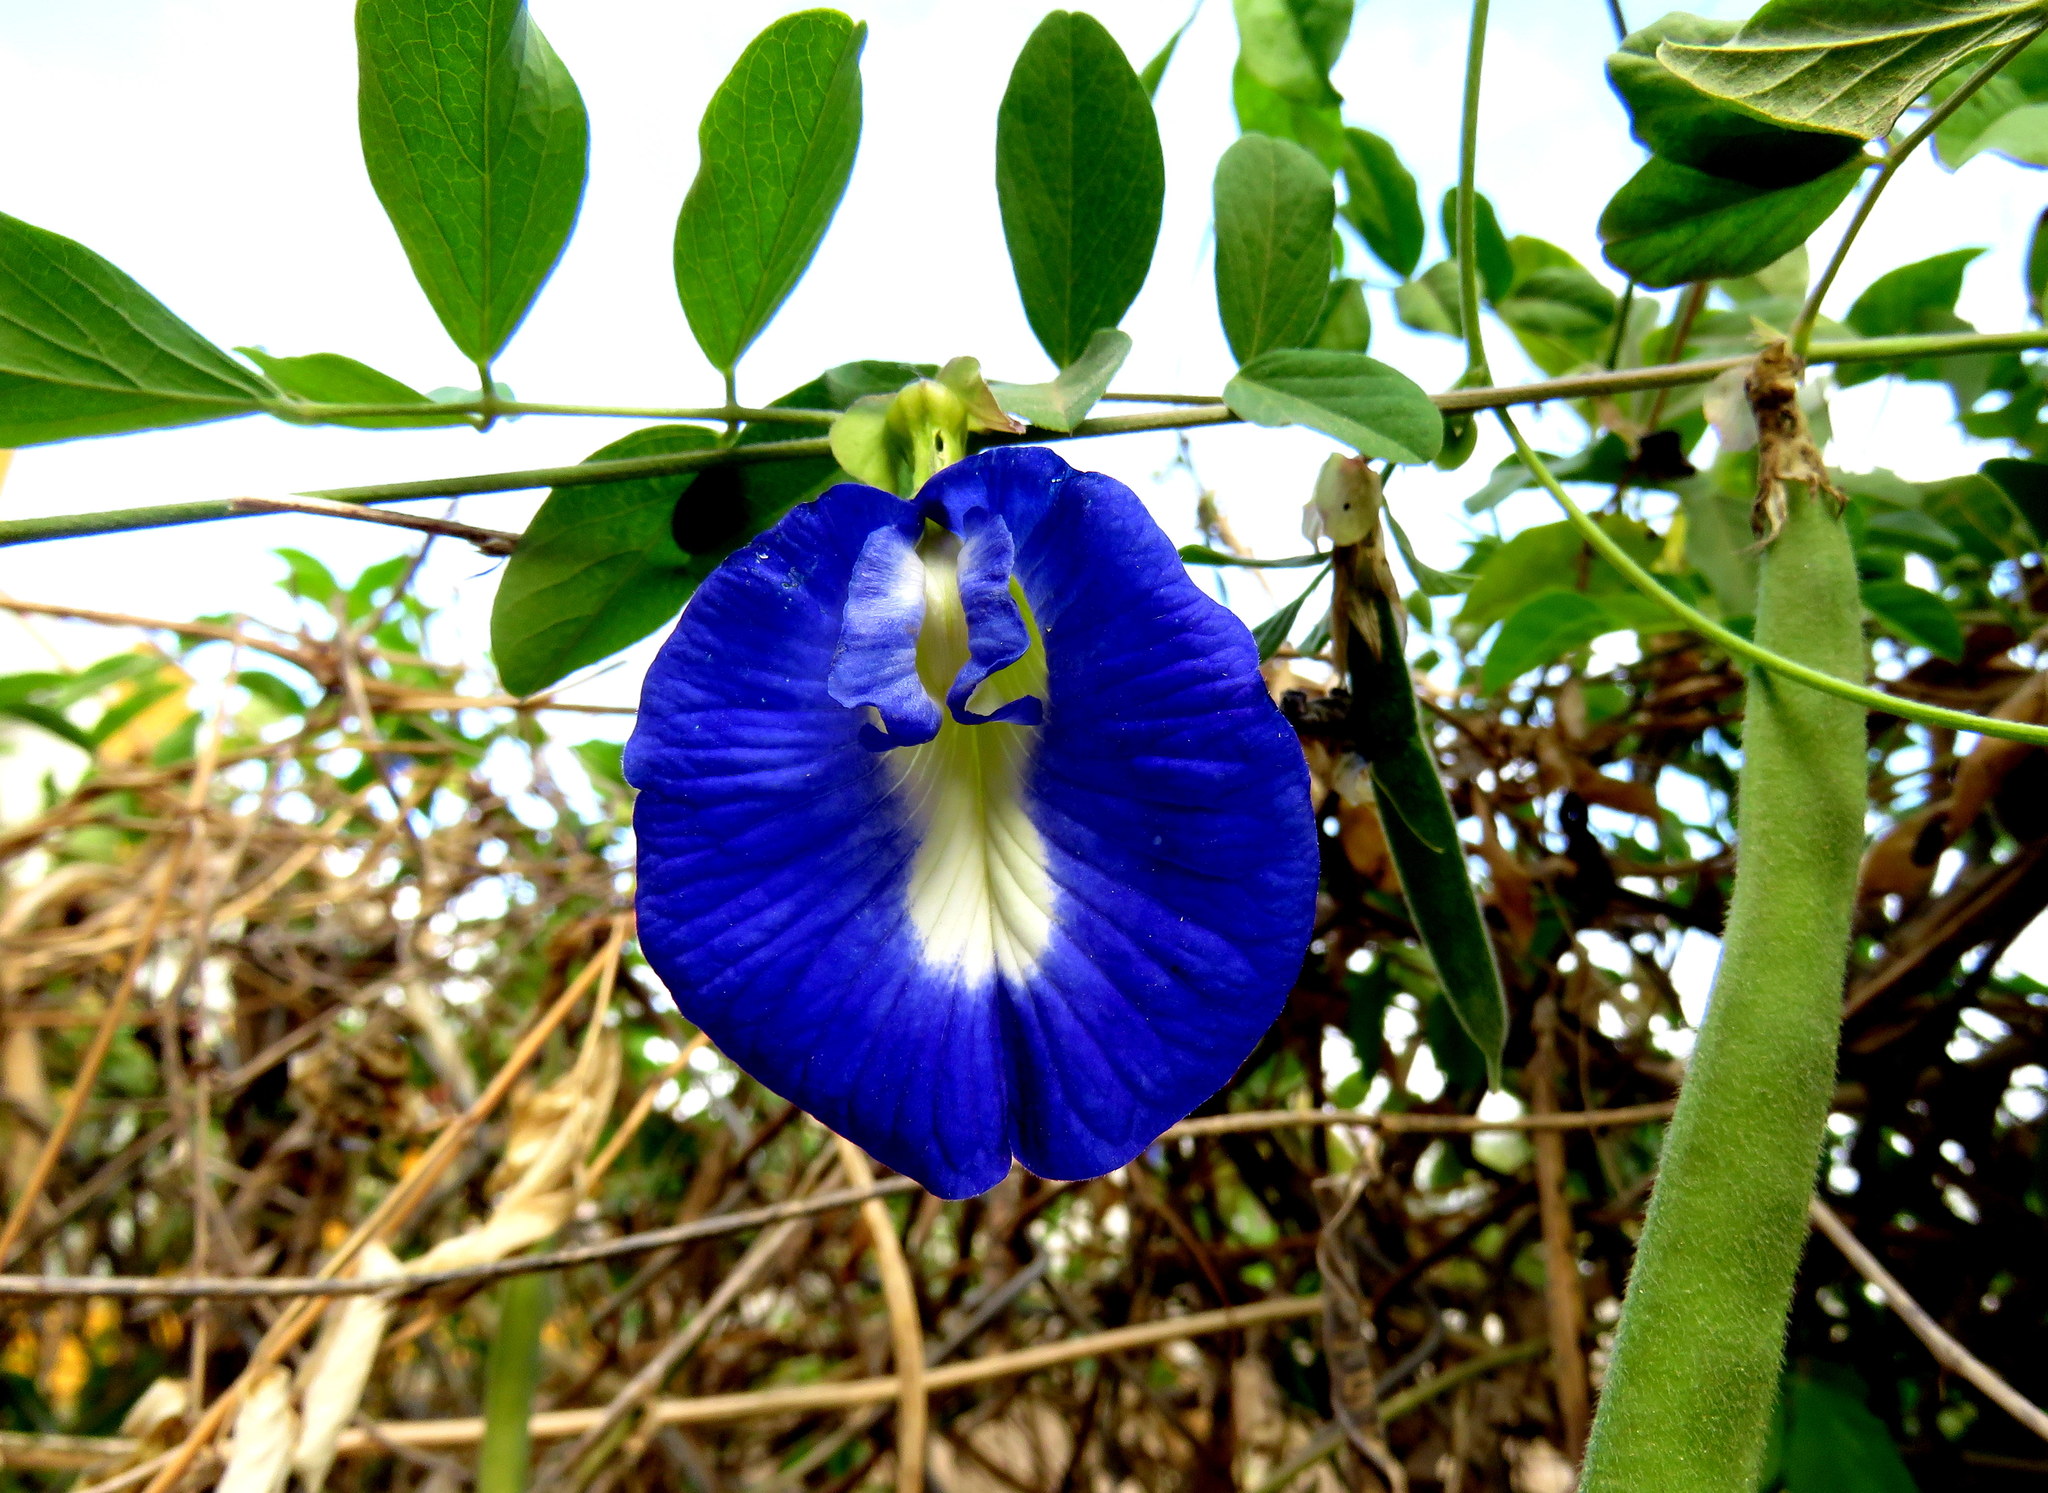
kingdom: Plantae
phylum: Tracheophyta
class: Magnoliopsida
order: Fabales
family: Fabaceae
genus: Clitoria
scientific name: Clitoria ternatea
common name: Asian pigeonwings
